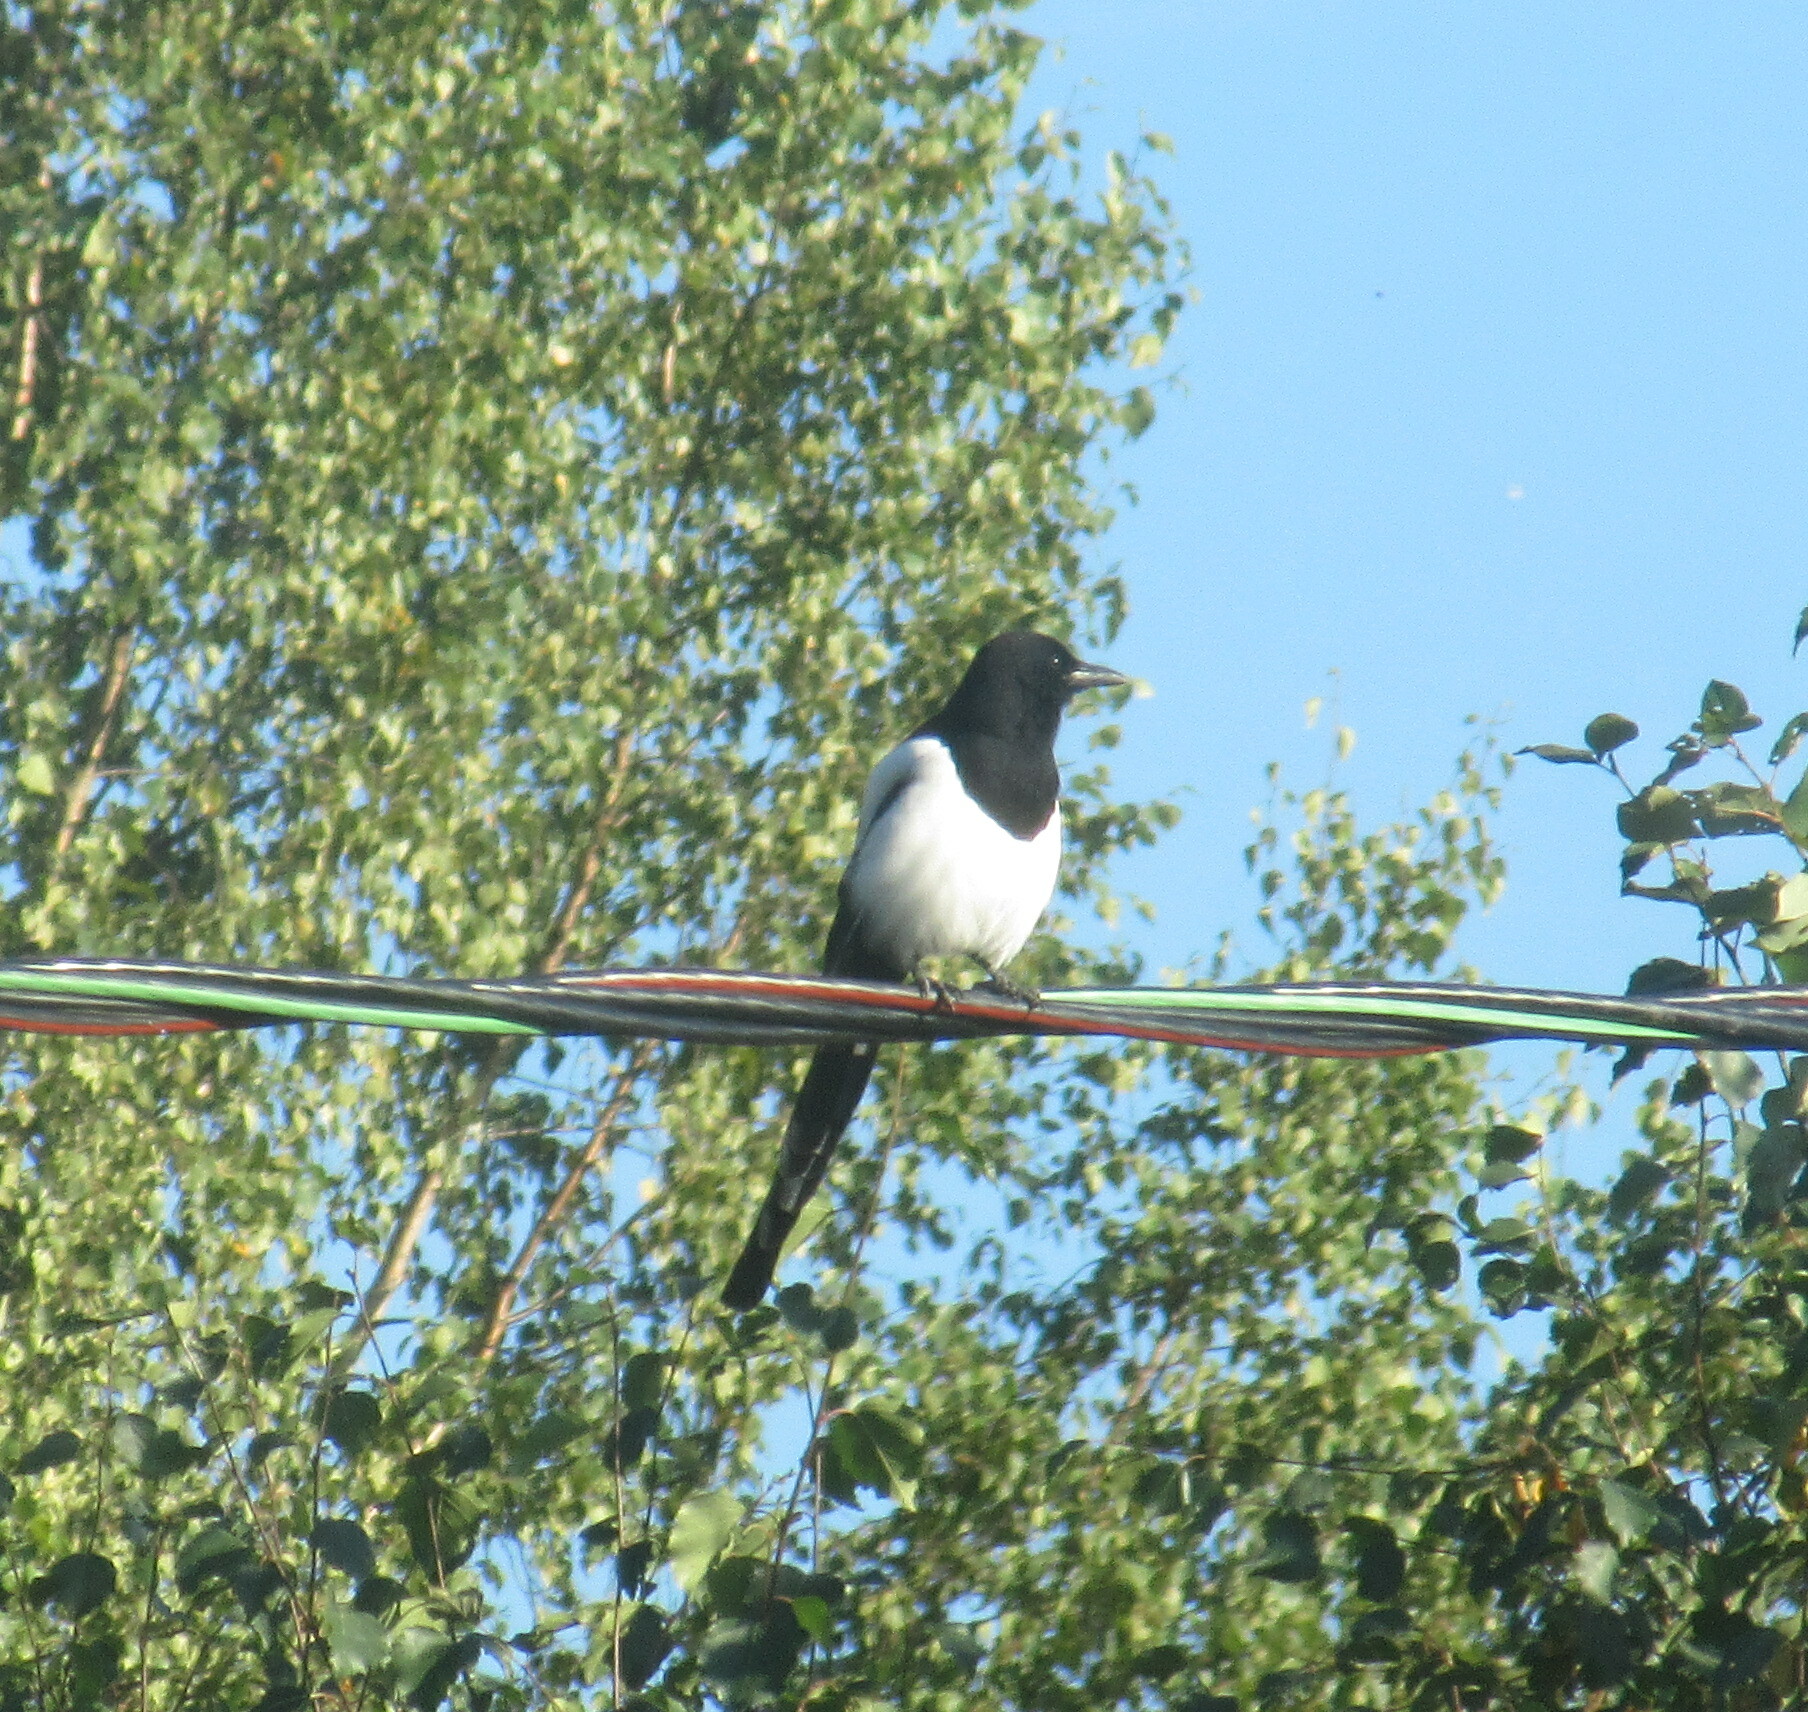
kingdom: Animalia
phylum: Chordata
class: Aves
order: Passeriformes
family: Corvidae
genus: Pica
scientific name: Pica pica
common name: Eurasian magpie
